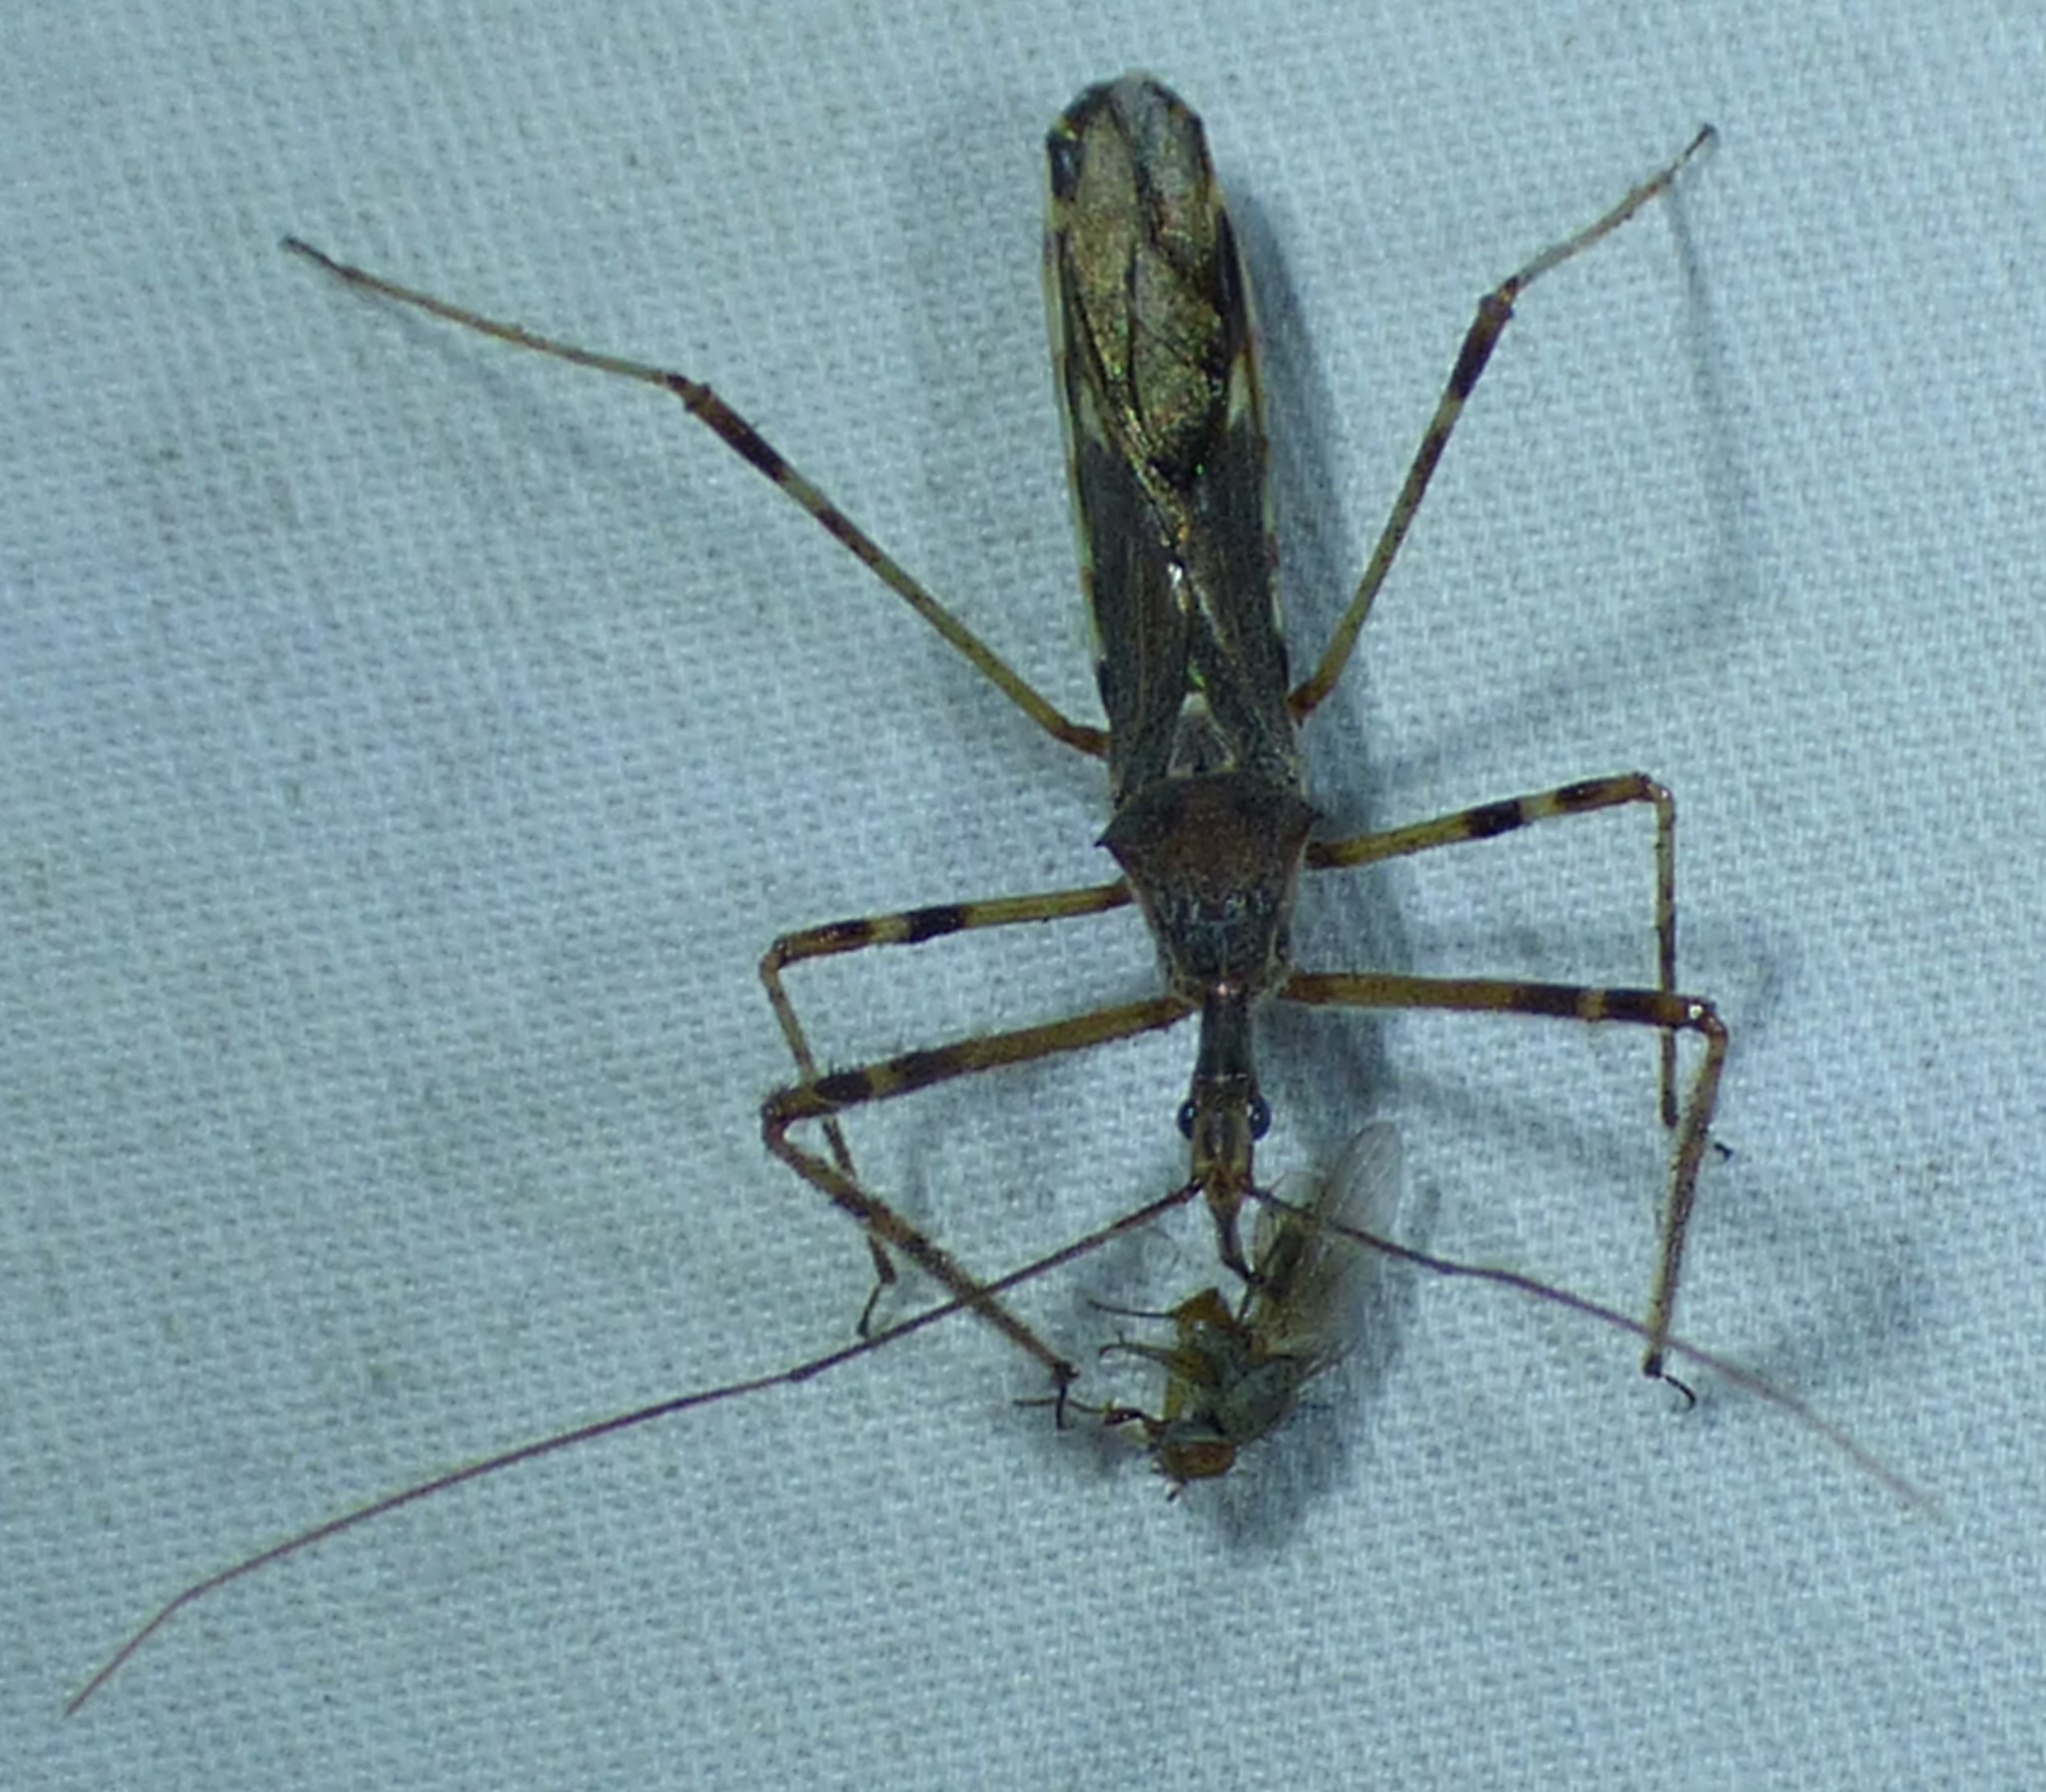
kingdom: Animalia
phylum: Arthropoda
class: Insecta
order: Hemiptera
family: Reduviidae
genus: Zelus
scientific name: Zelus tetracanthus
